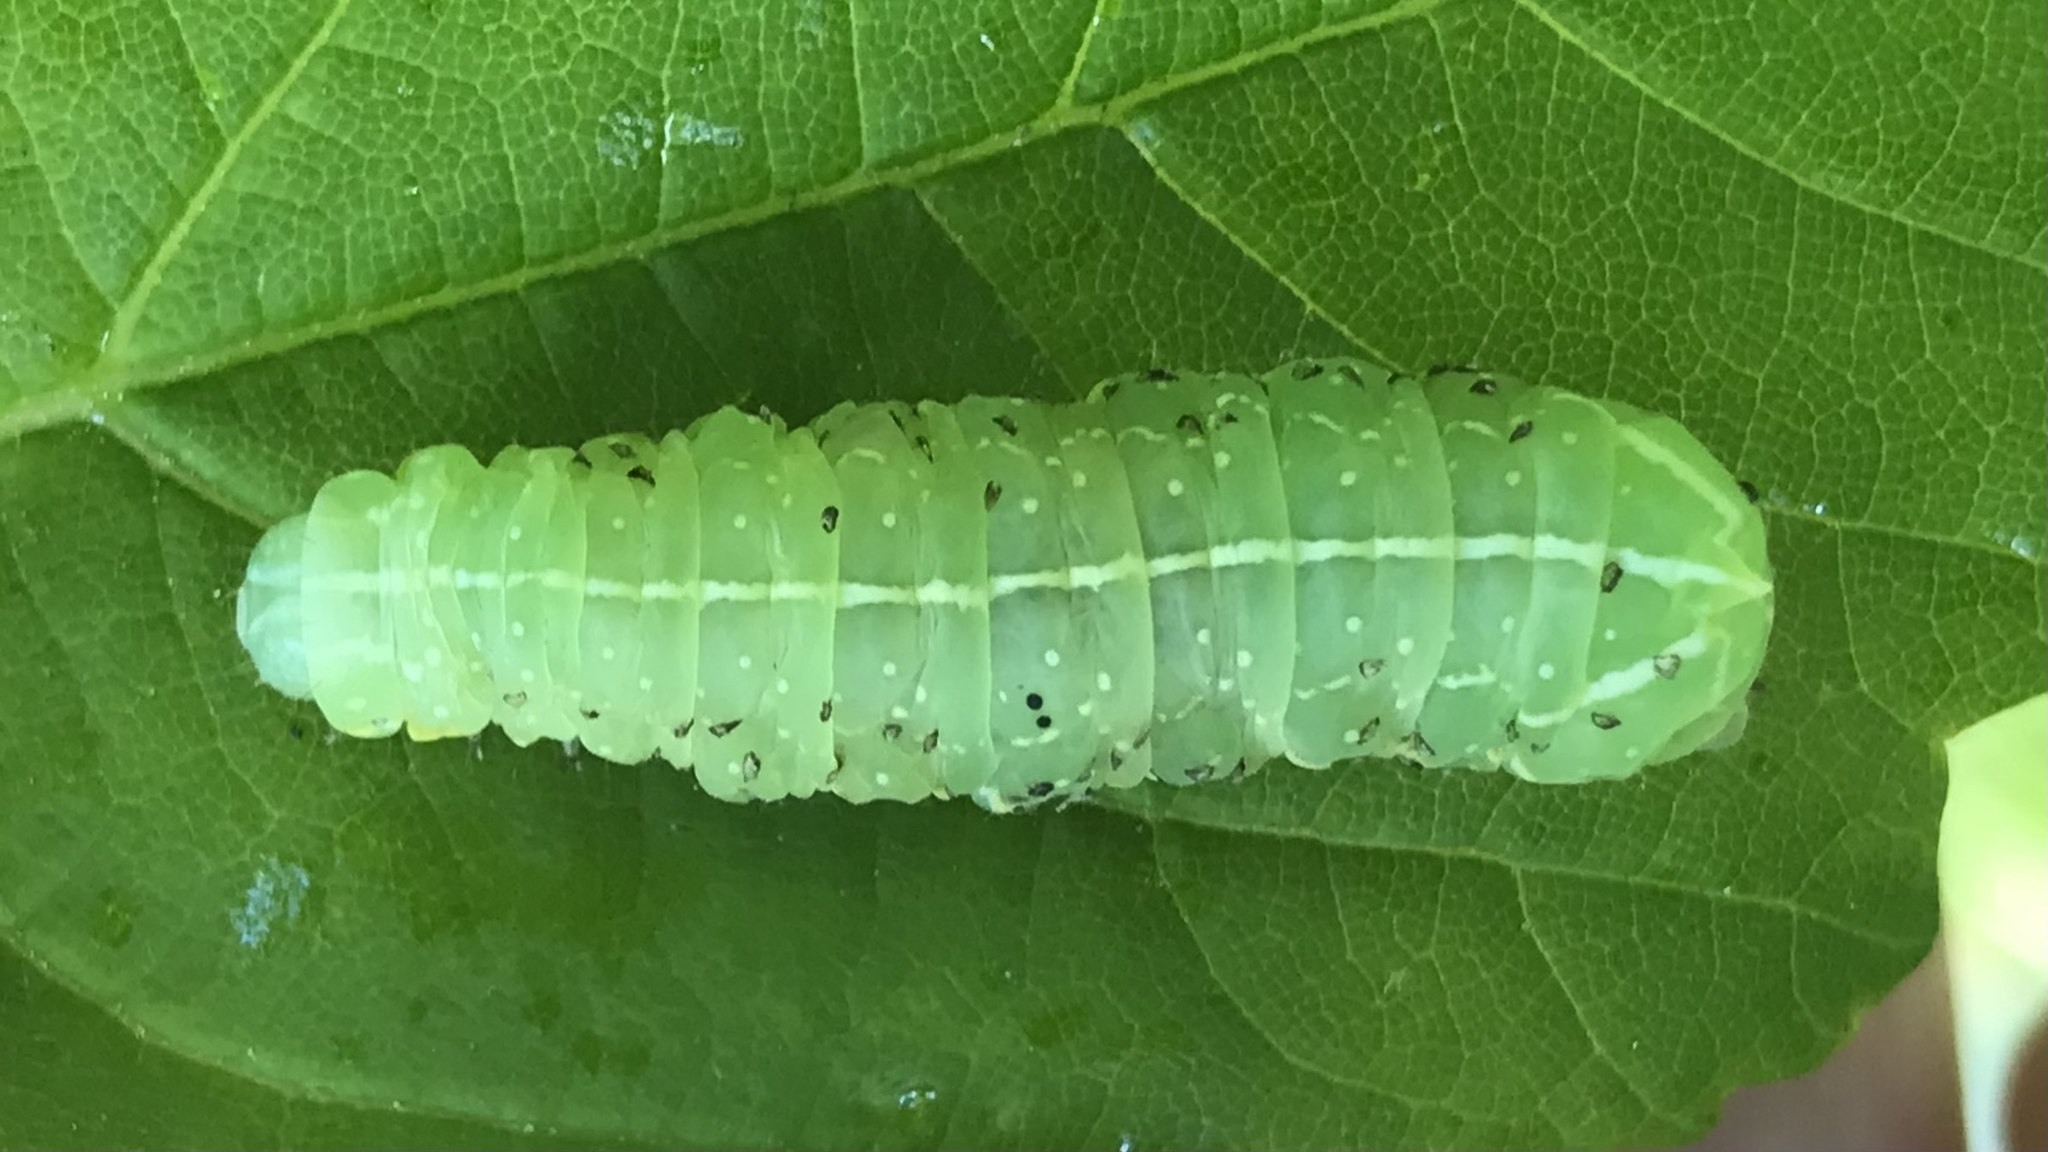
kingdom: Animalia
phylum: Arthropoda
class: Insecta
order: Lepidoptera
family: Noctuidae
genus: Amphipyra
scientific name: Amphipyra pyramidea
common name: Copper underwing
